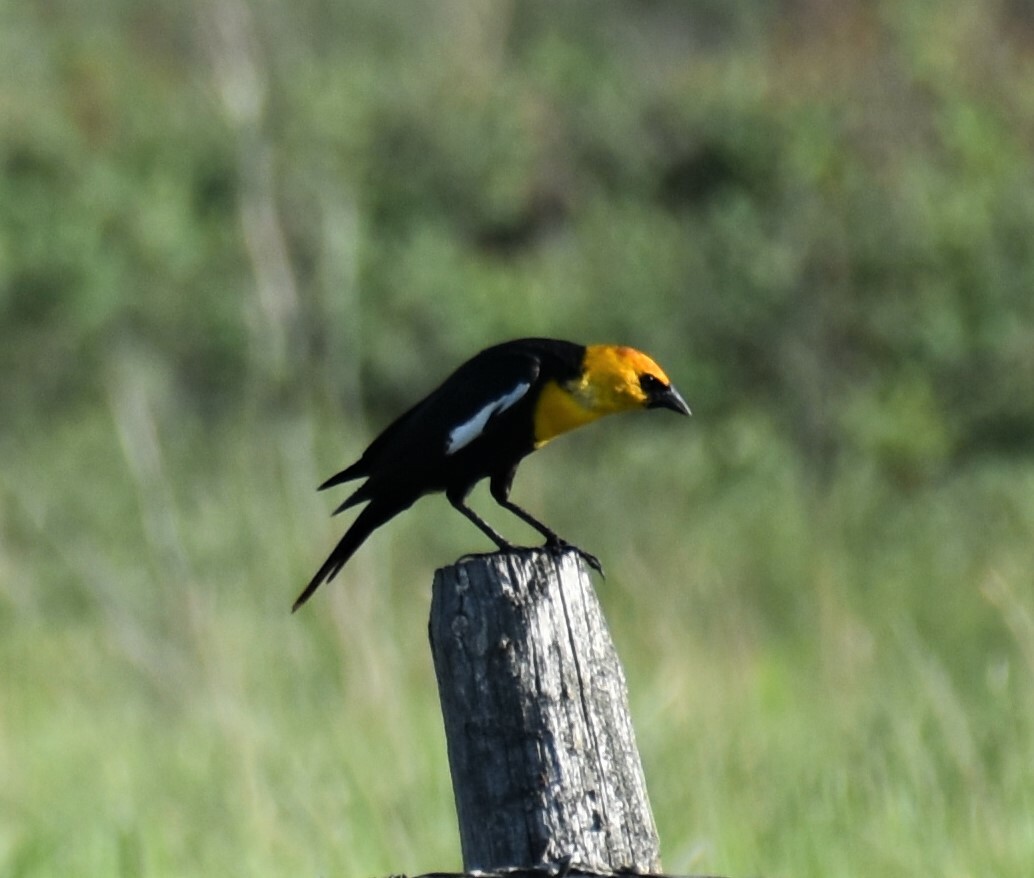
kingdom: Animalia
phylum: Chordata
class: Aves
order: Passeriformes
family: Icteridae
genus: Xanthocephalus
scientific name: Xanthocephalus xanthocephalus
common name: Yellow-headed blackbird
